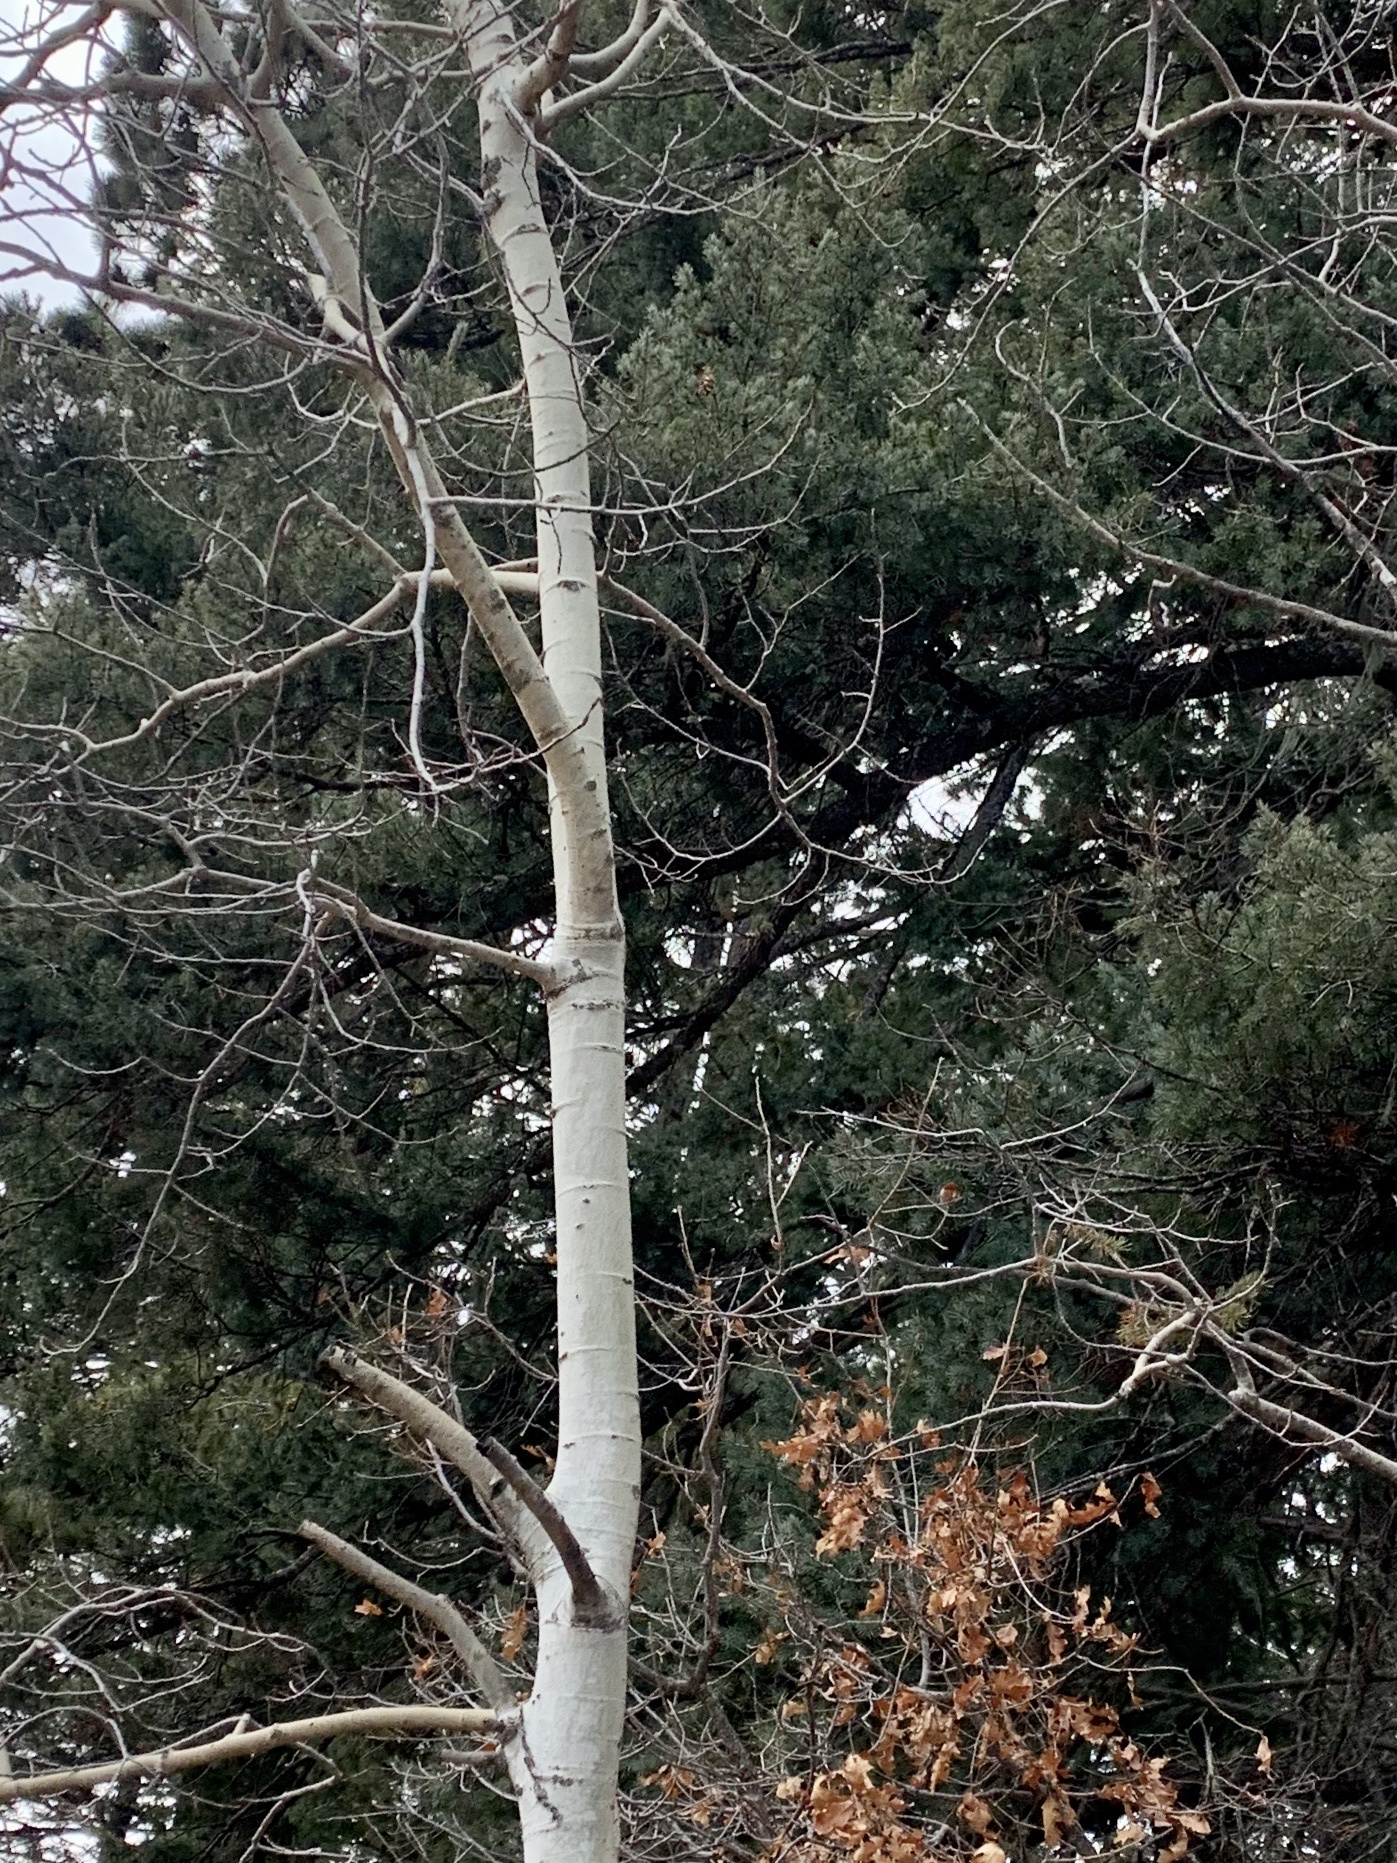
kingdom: Plantae
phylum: Tracheophyta
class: Magnoliopsida
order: Malpighiales
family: Salicaceae
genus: Populus
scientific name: Populus tremuloides
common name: Quaking aspen
